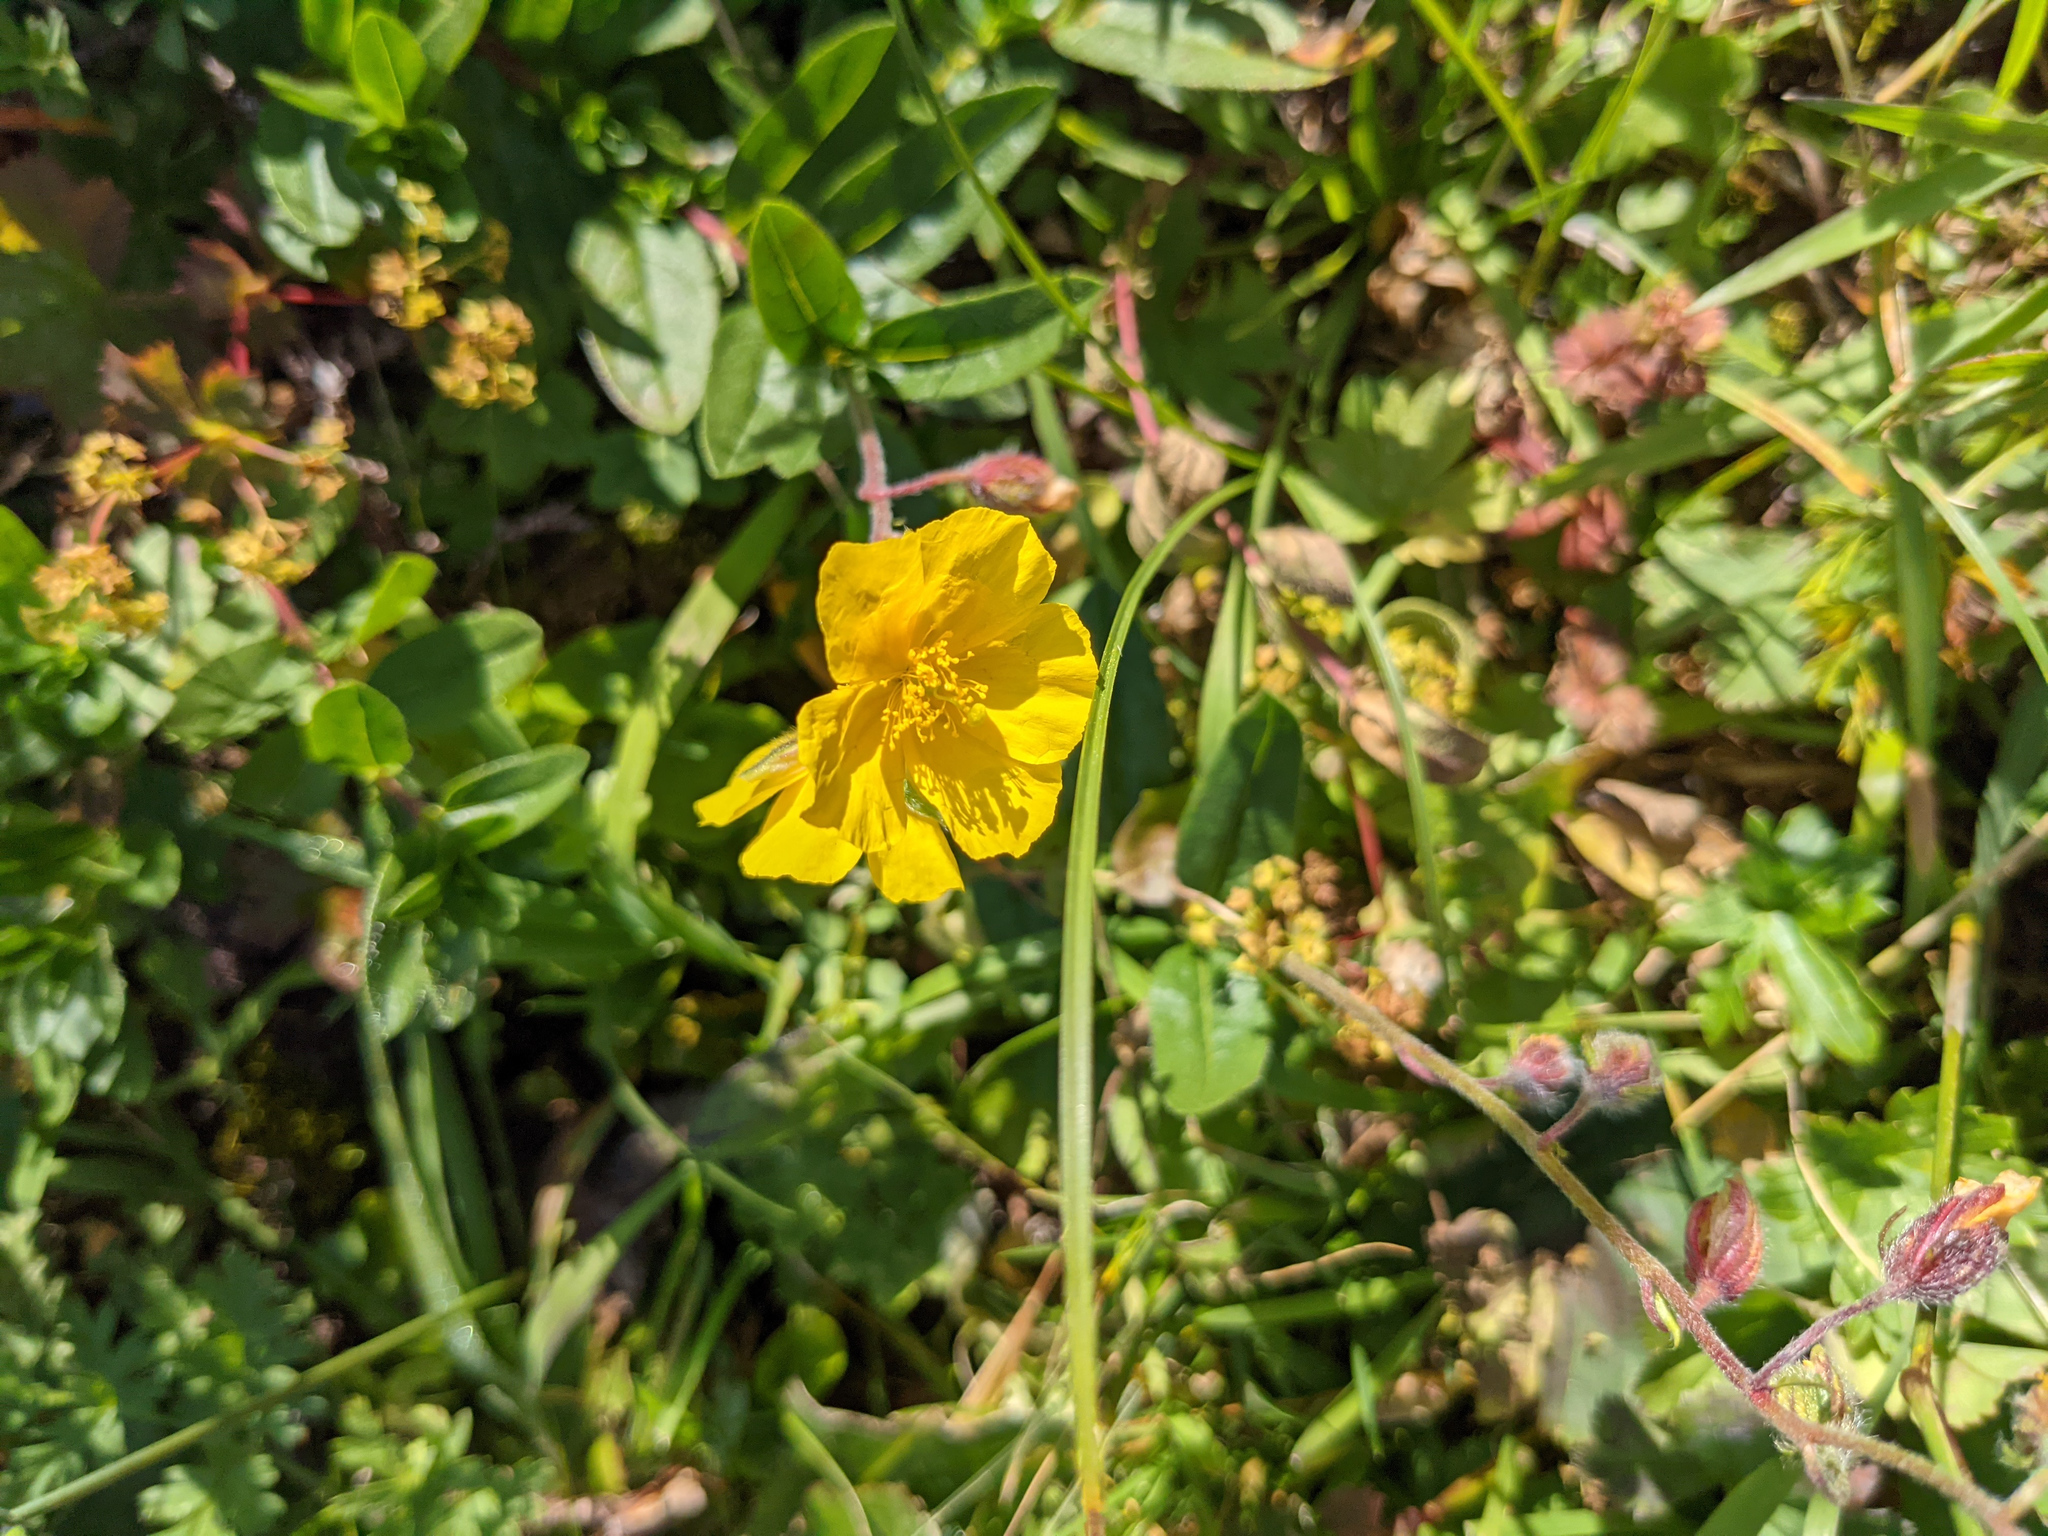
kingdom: Plantae
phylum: Tracheophyta
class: Magnoliopsida
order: Malvales
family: Cistaceae
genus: Helianthemum
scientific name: Helianthemum nummularium
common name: Common rock-rose
